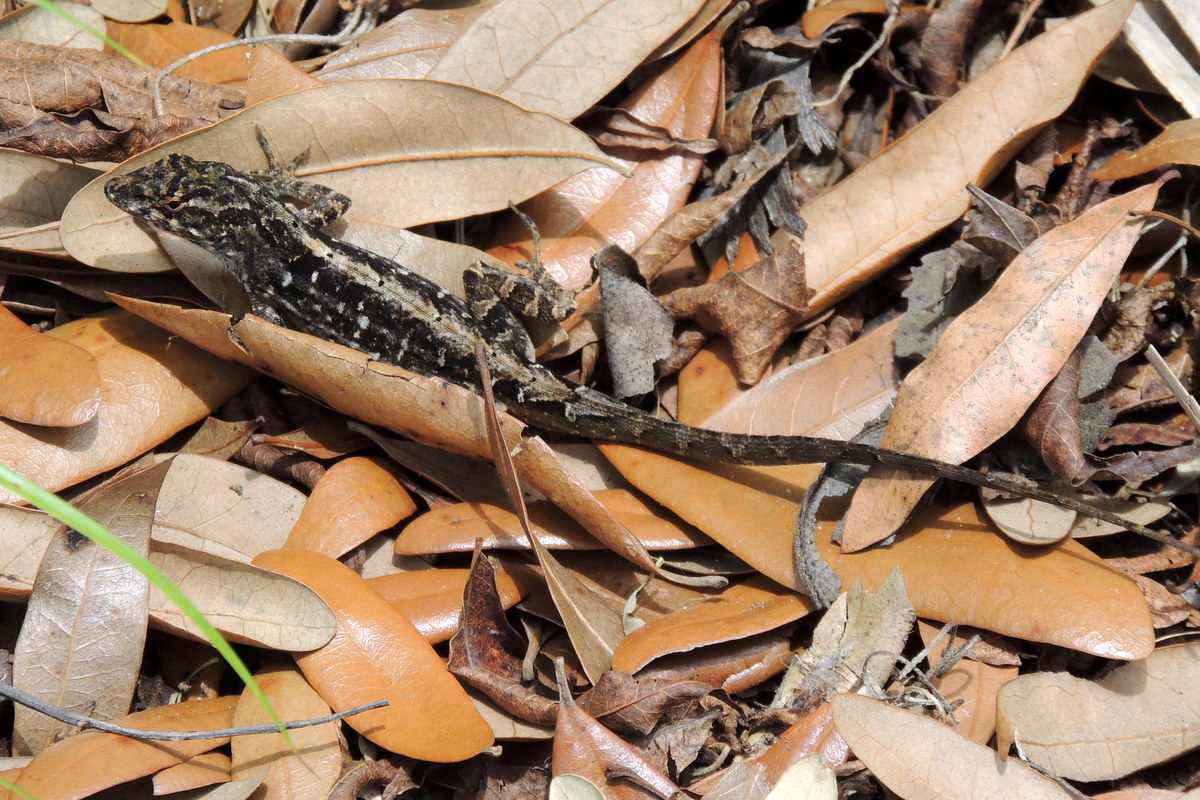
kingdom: Animalia
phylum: Chordata
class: Squamata
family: Dactyloidae
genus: Anolis
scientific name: Anolis sagrei
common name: Brown anole
